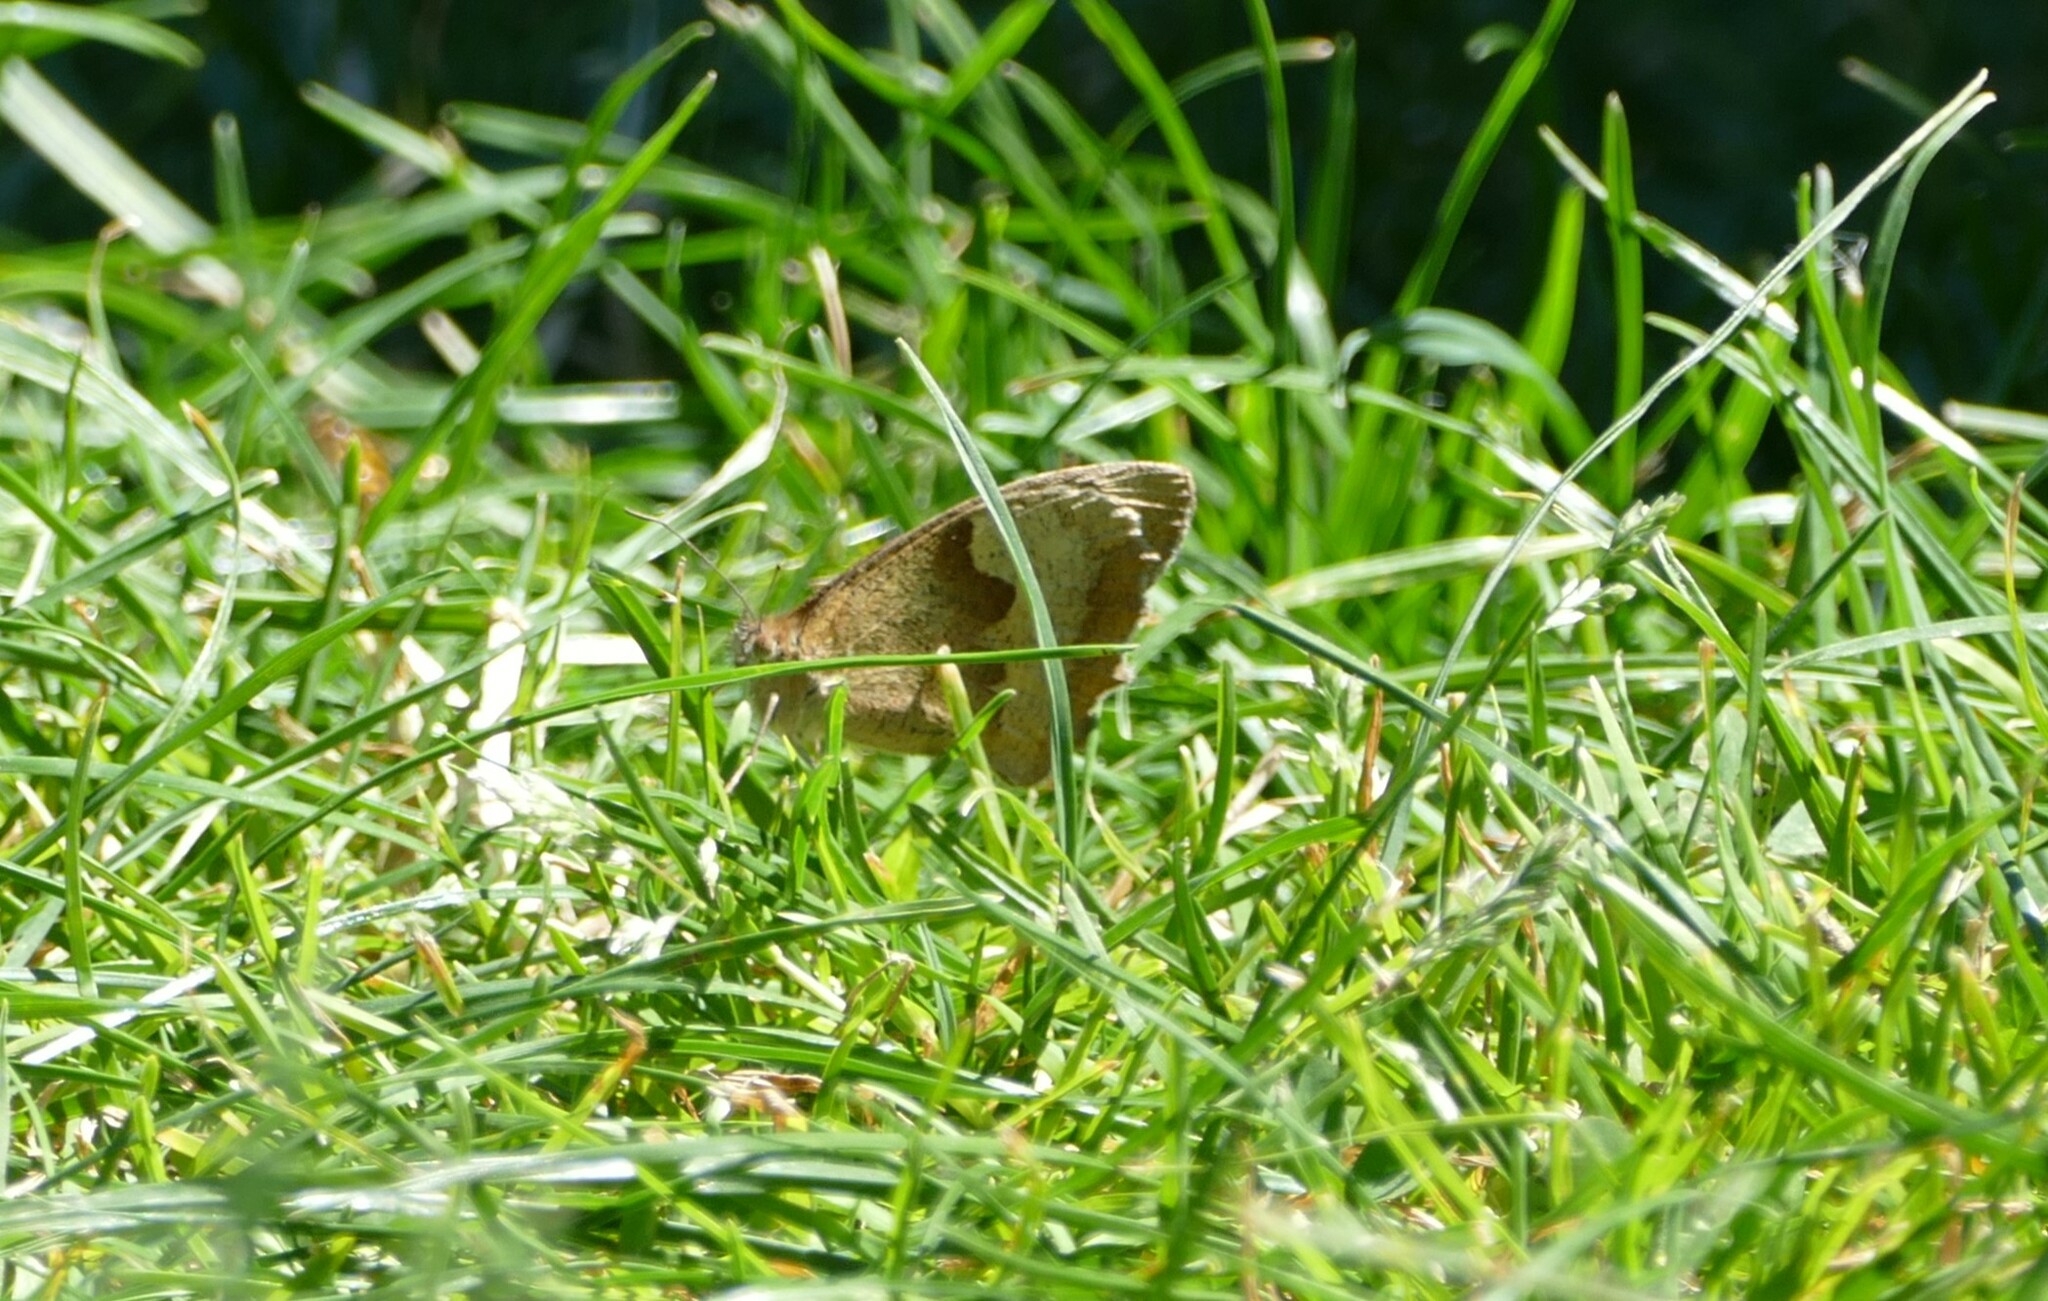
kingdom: Animalia
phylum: Arthropoda
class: Insecta
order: Lepidoptera
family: Nymphalidae
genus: Maniola
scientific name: Maniola jurtina
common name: Meadow brown
